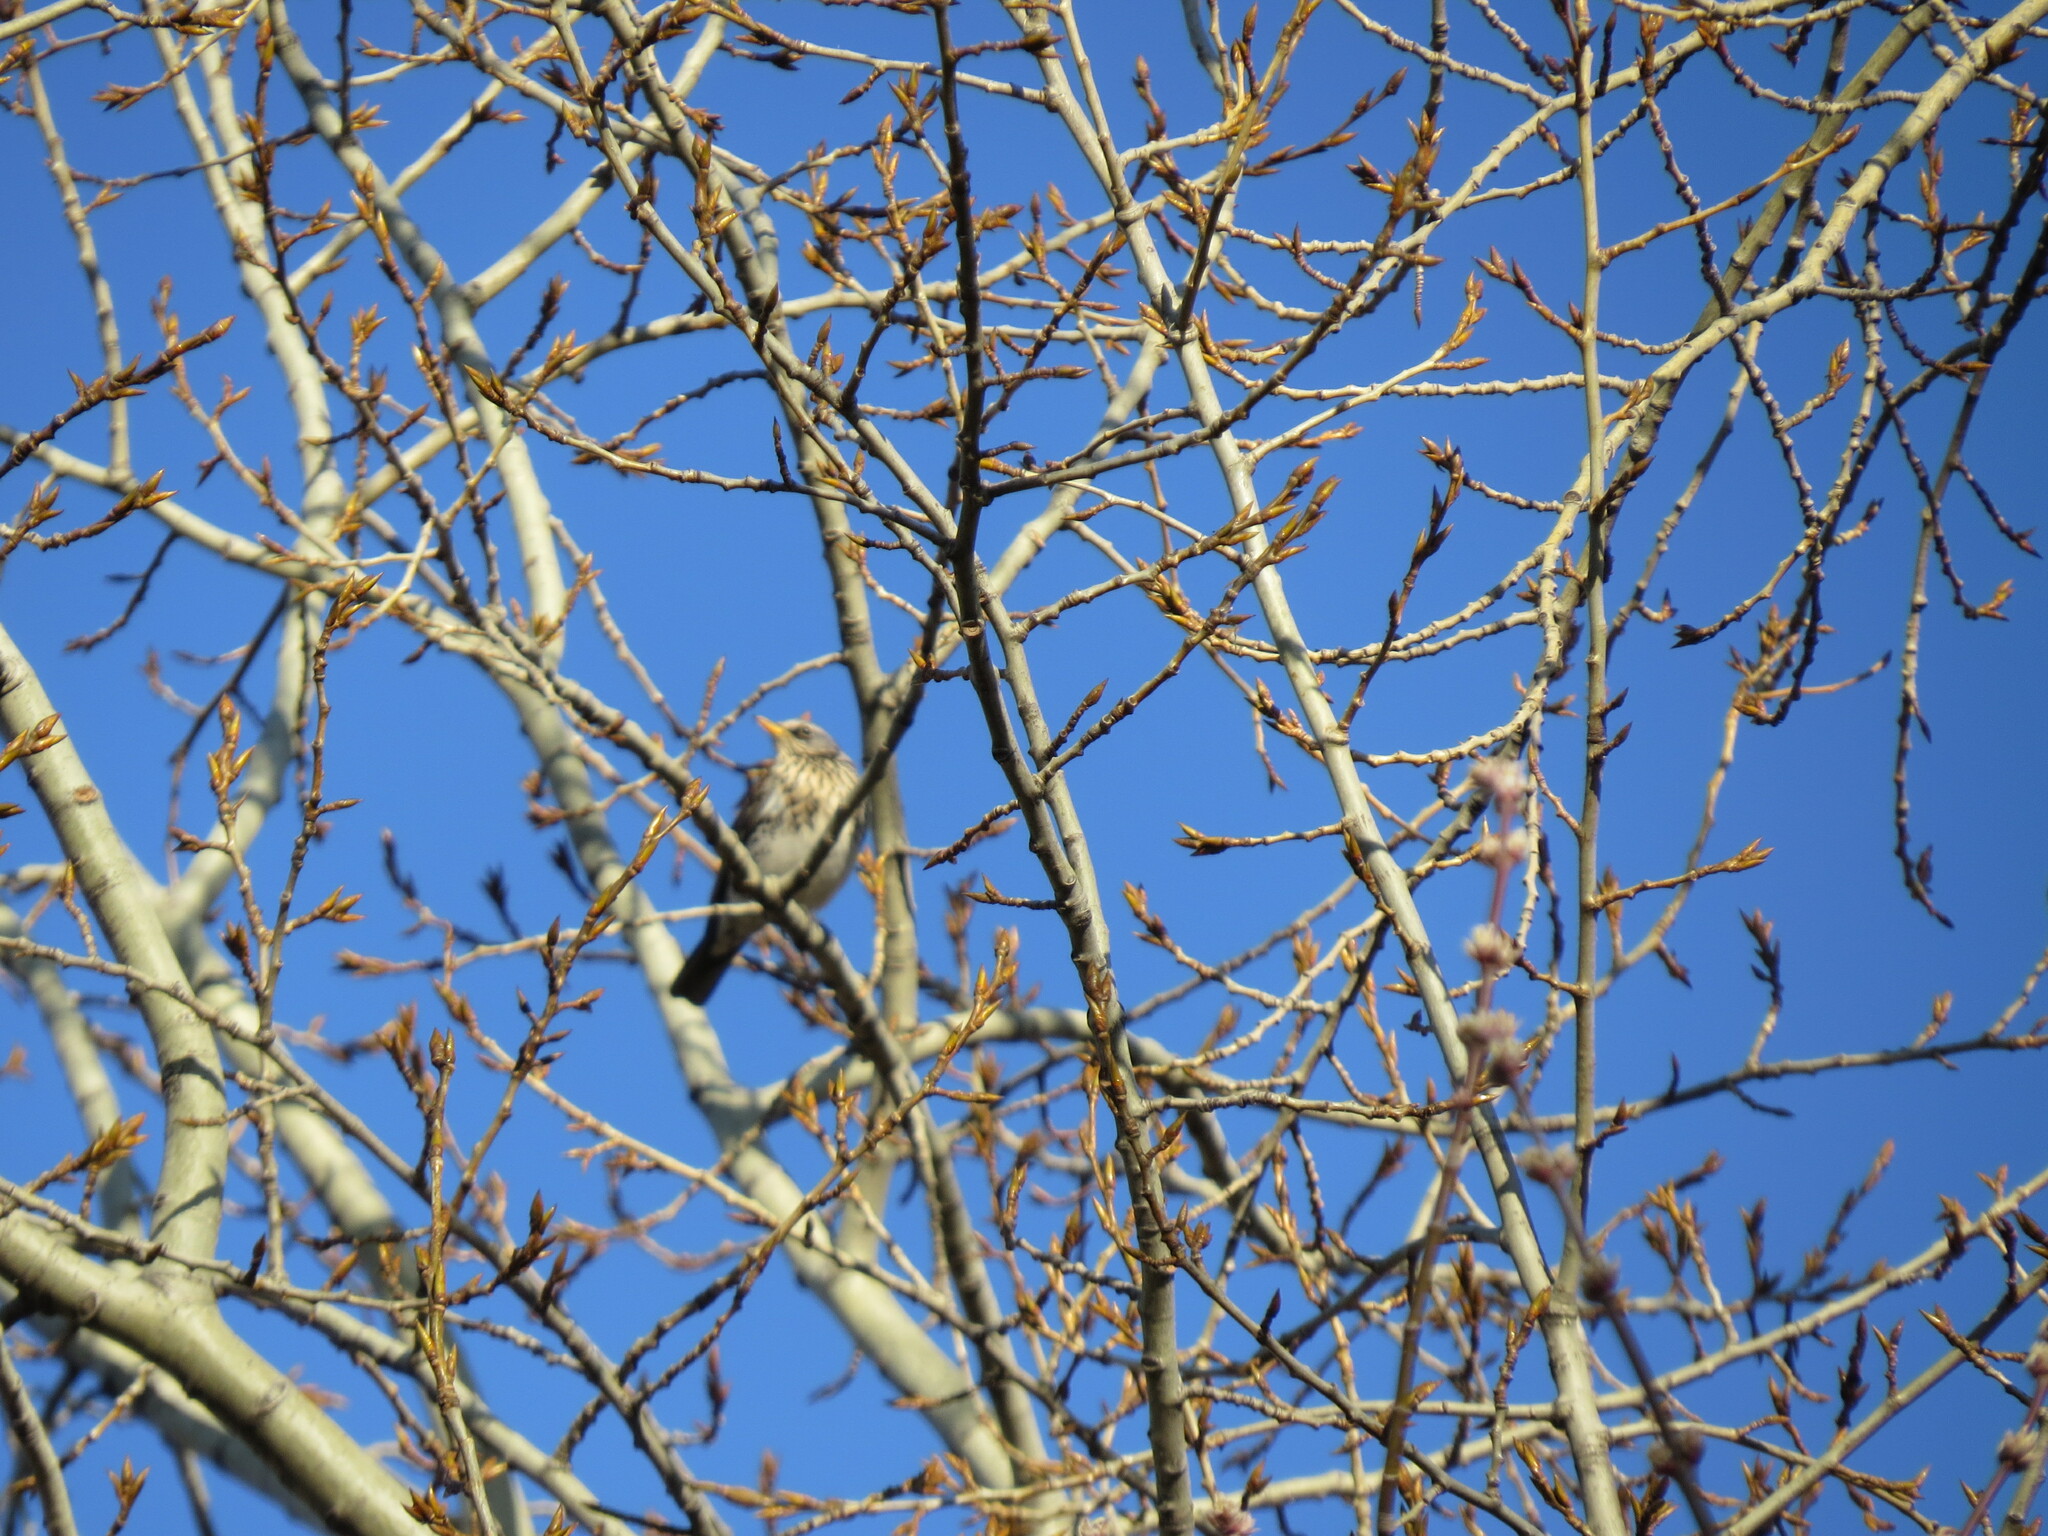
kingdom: Animalia
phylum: Chordata
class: Aves
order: Passeriformes
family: Turdidae
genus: Turdus
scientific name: Turdus pilaris
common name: Fieldfare
